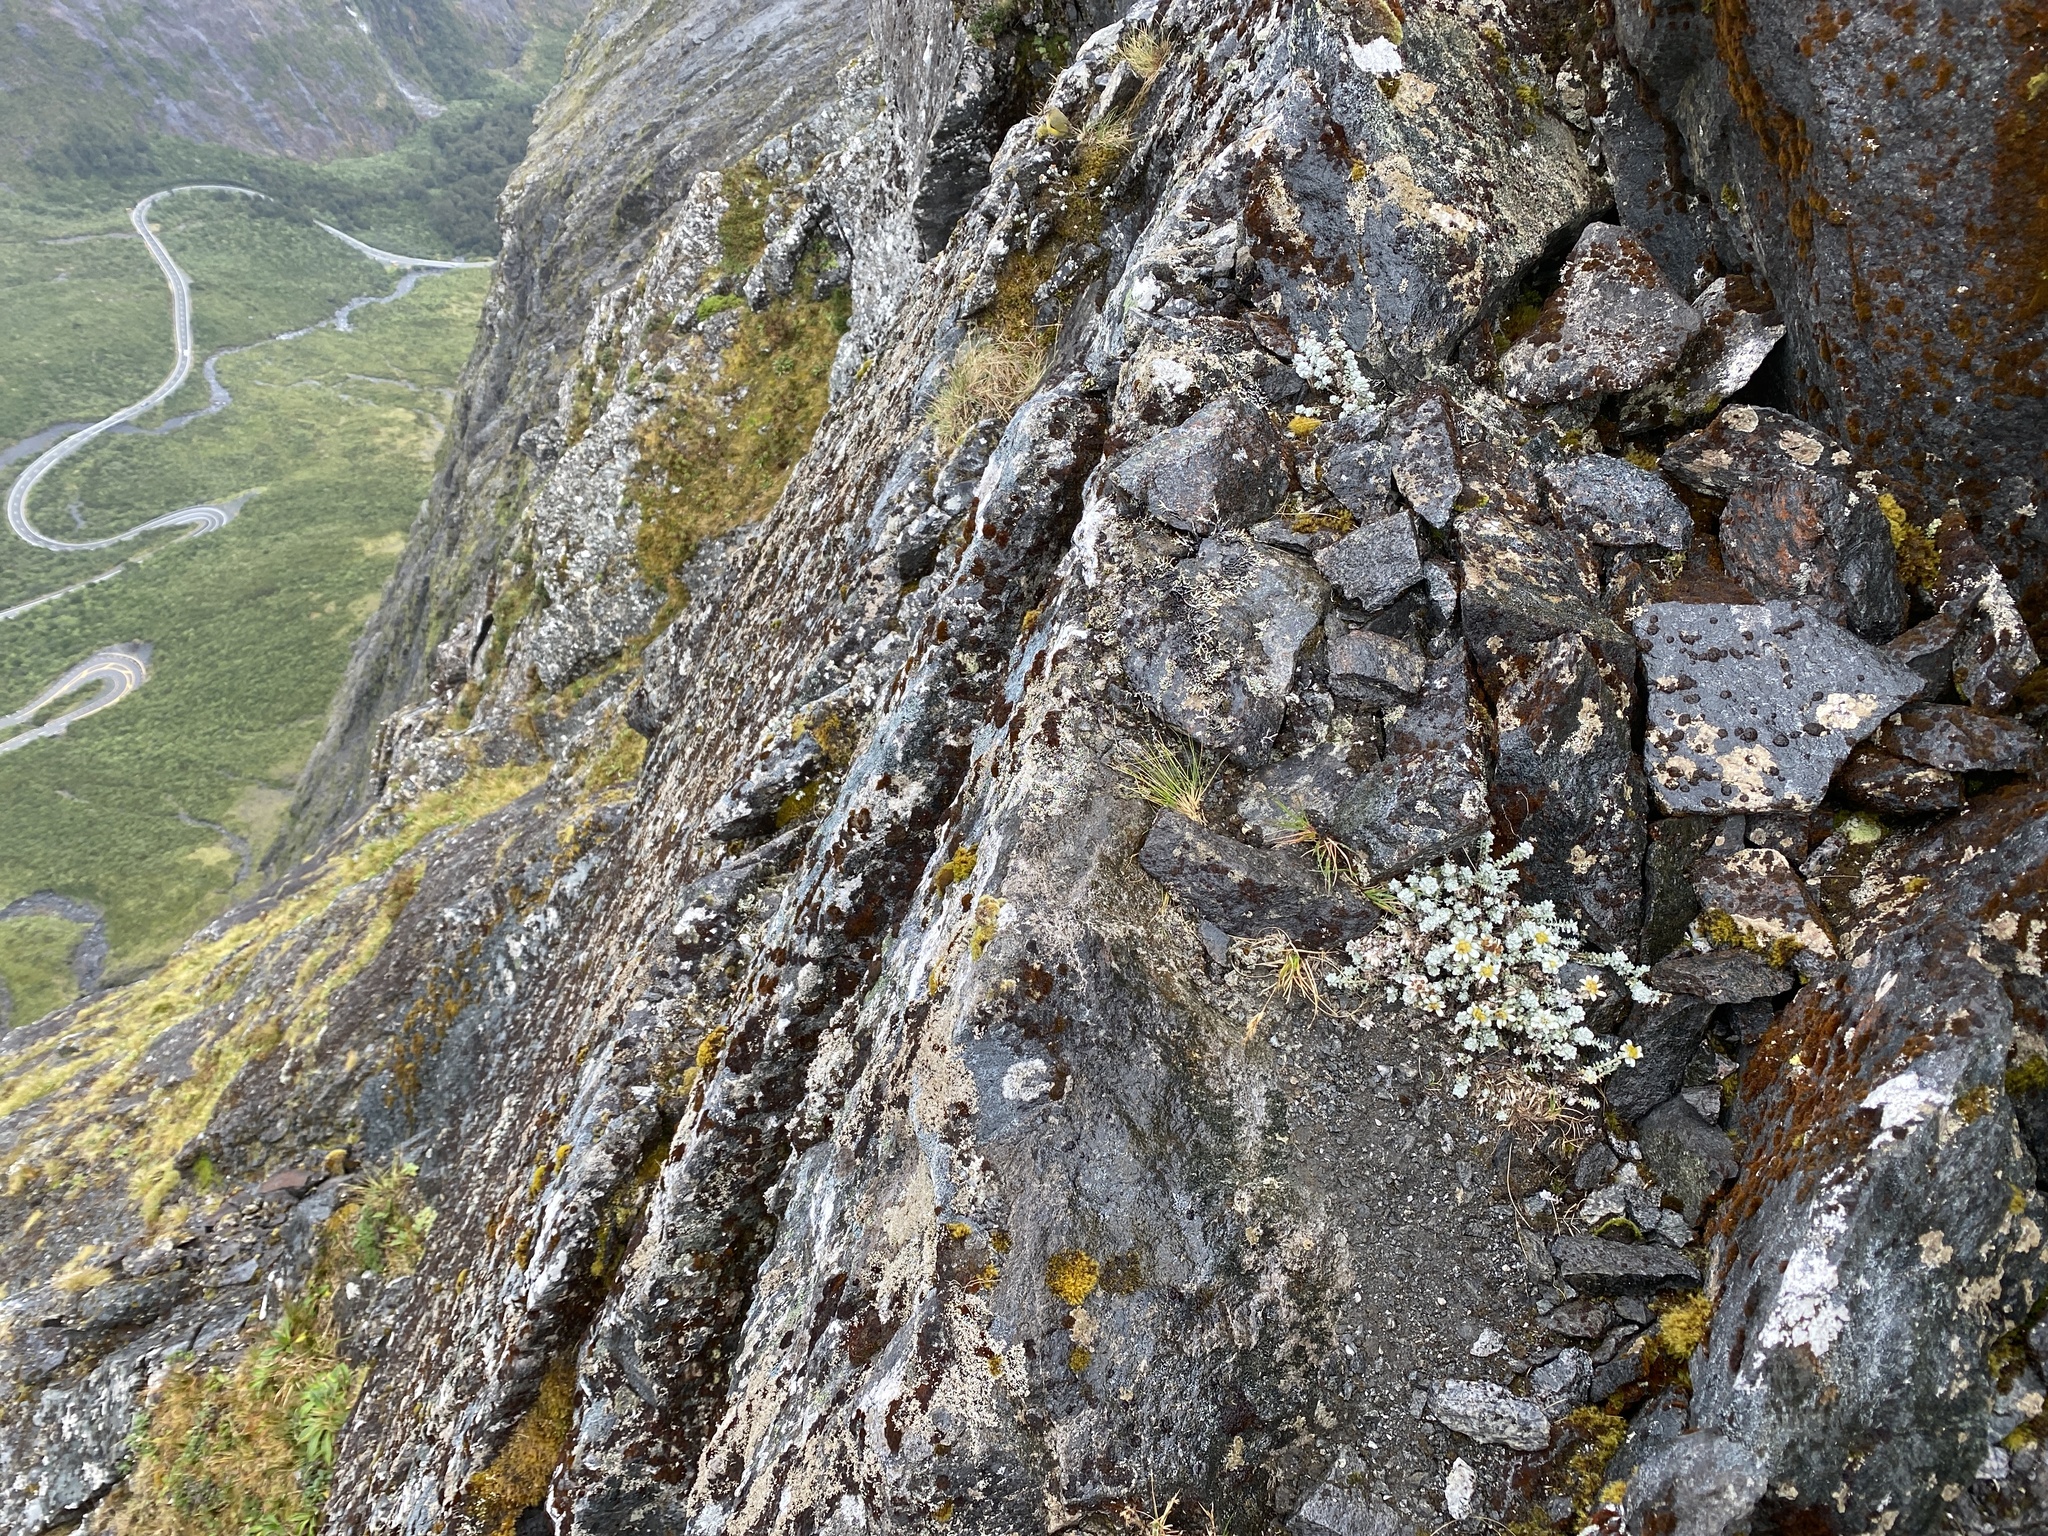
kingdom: Animalia
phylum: Chordata
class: Aves
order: Passeriformes
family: Acanthisittidae
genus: Xenicus
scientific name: Xenicus gilviventris
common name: New zealand rockwren
